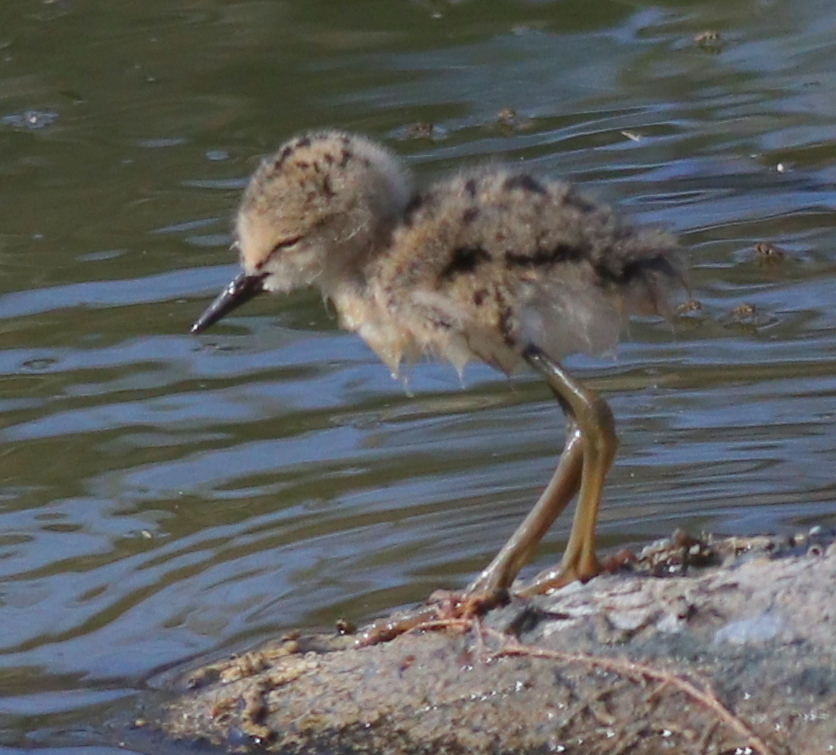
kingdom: Animalia
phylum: Chordata
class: Aves
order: Charadriiformes
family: Recurvirostridae
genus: Himantopus
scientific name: Himantopus himantopus
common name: Black-winged stilt
